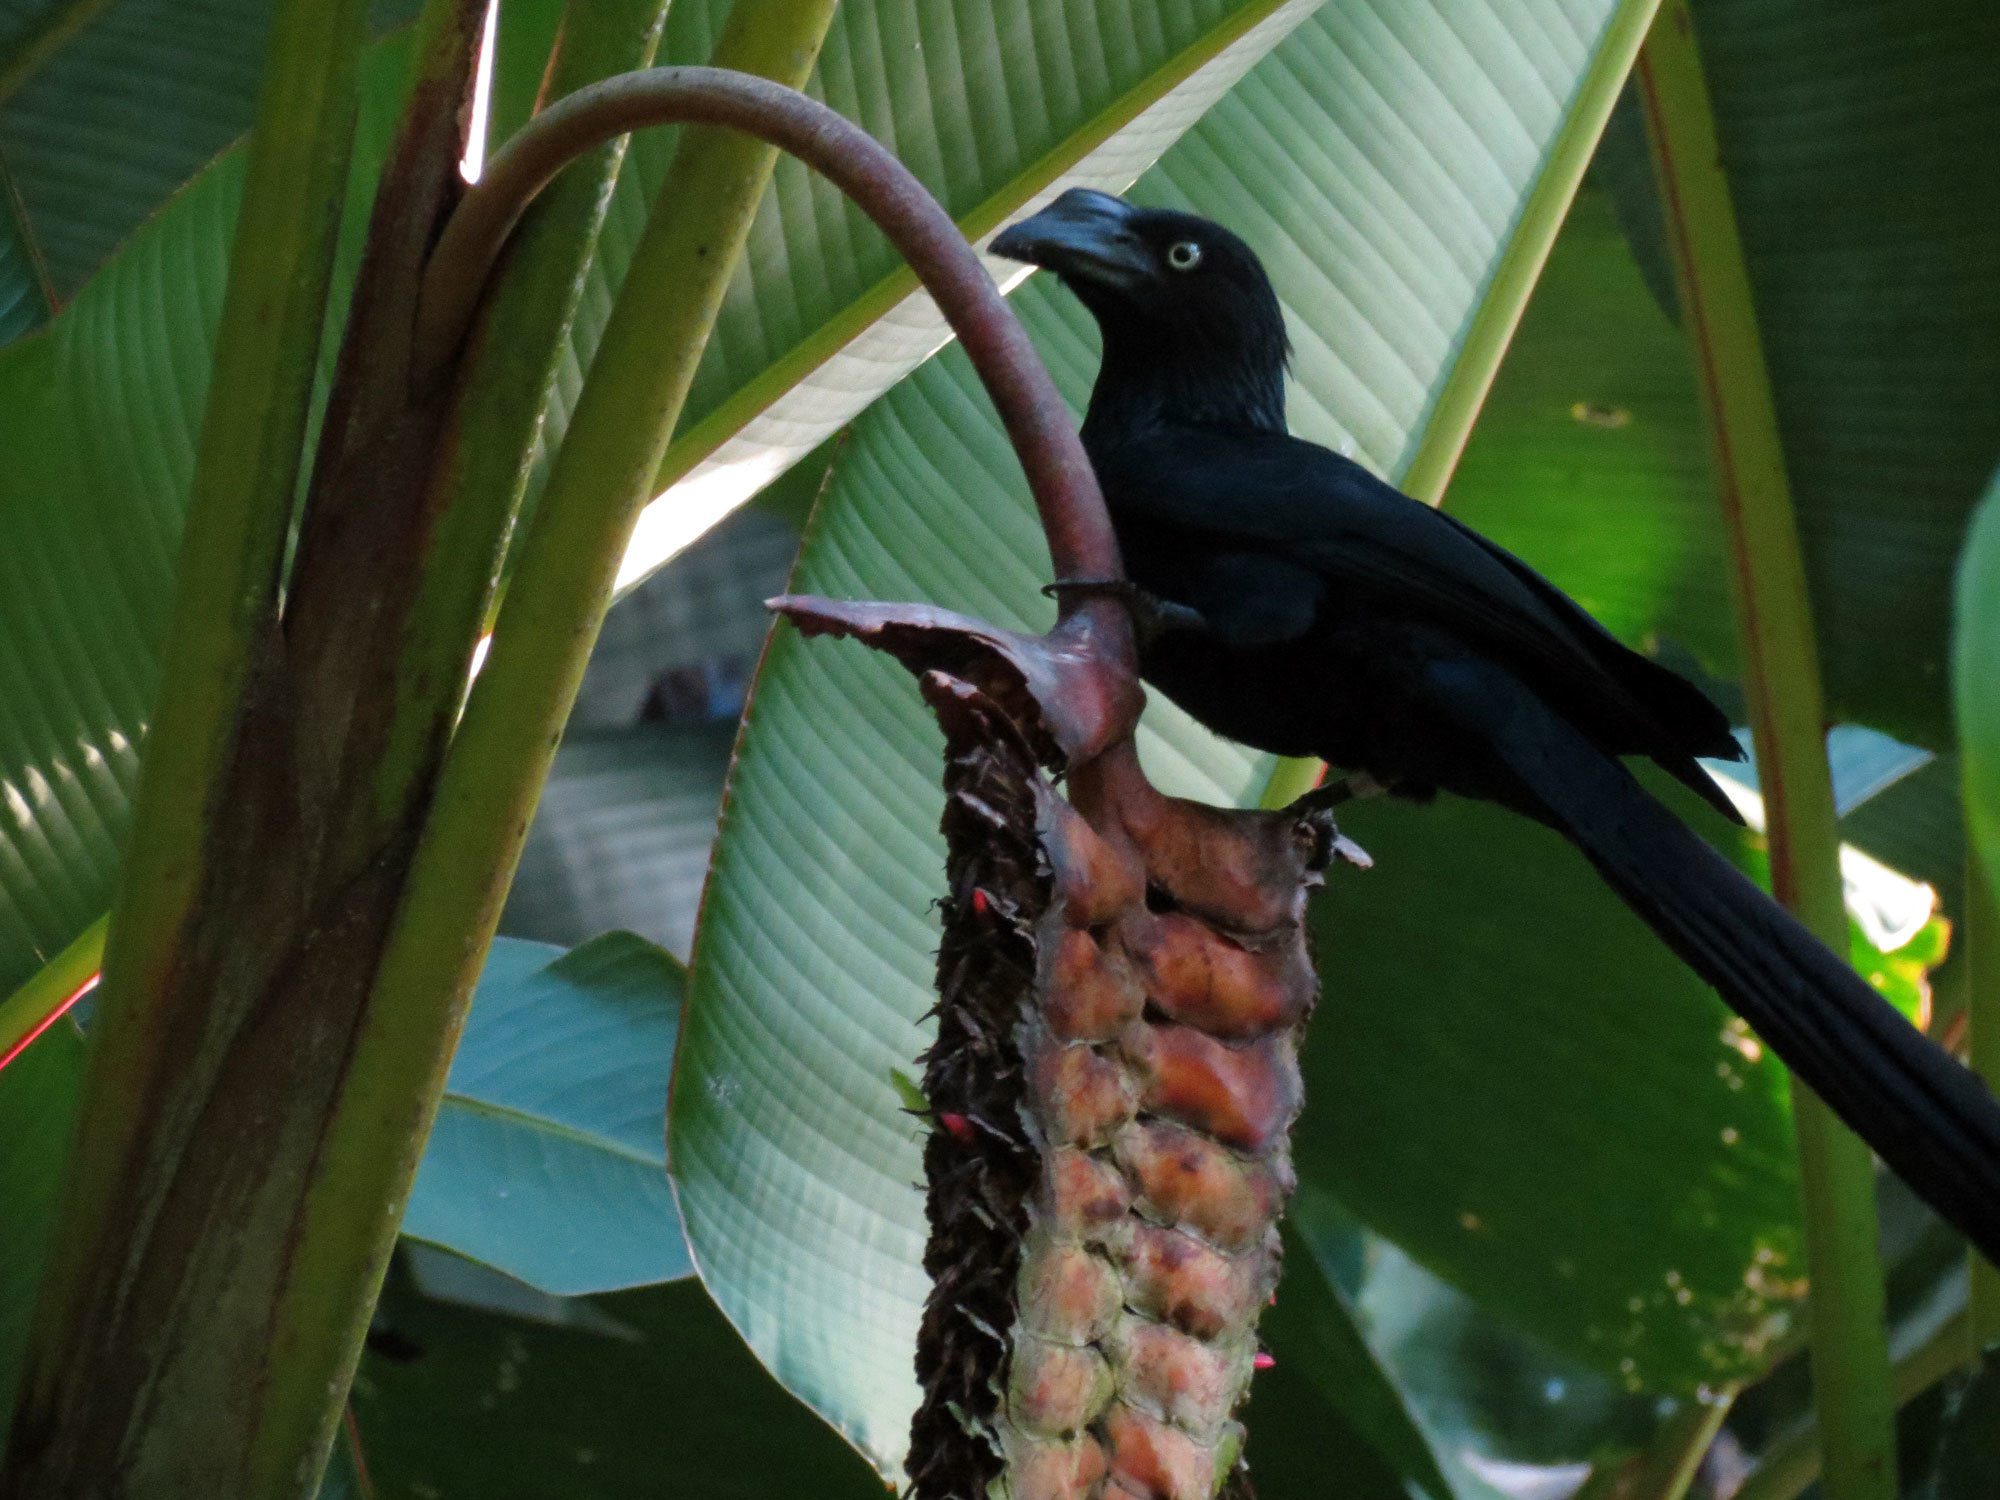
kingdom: Animalia
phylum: Chordata
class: Aves
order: Cuculiformes
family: Cuculidae
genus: Crotophaga
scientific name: Crotophaga major
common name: Greater ani
